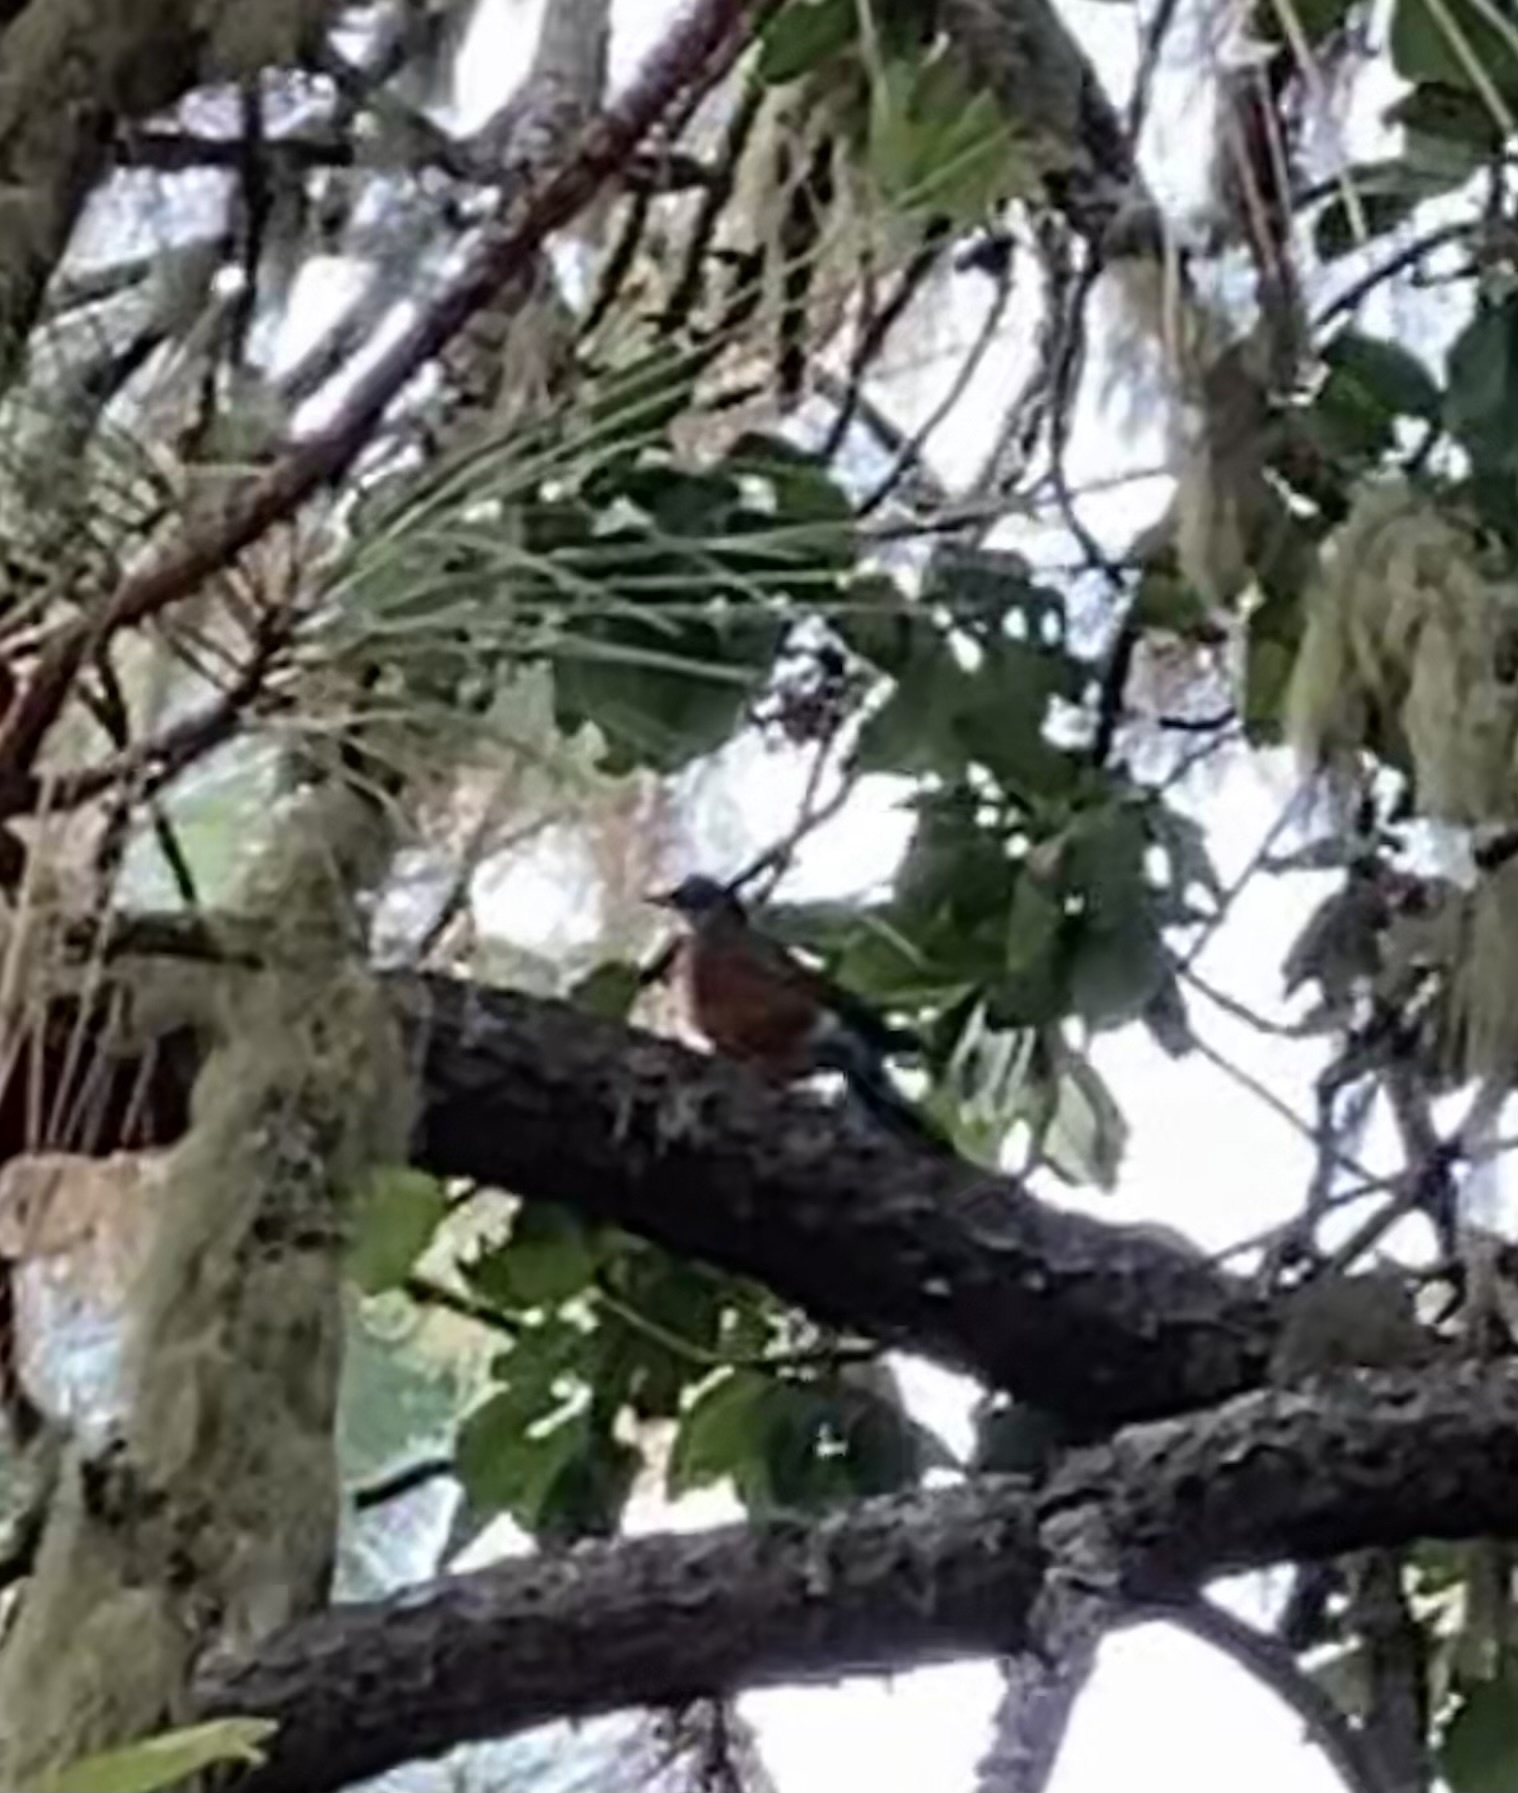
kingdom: Animalia
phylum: Chordata
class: Aves
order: Passeriformes
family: Turdidae
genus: Turdus
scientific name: Turdus migratorius
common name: American robin
